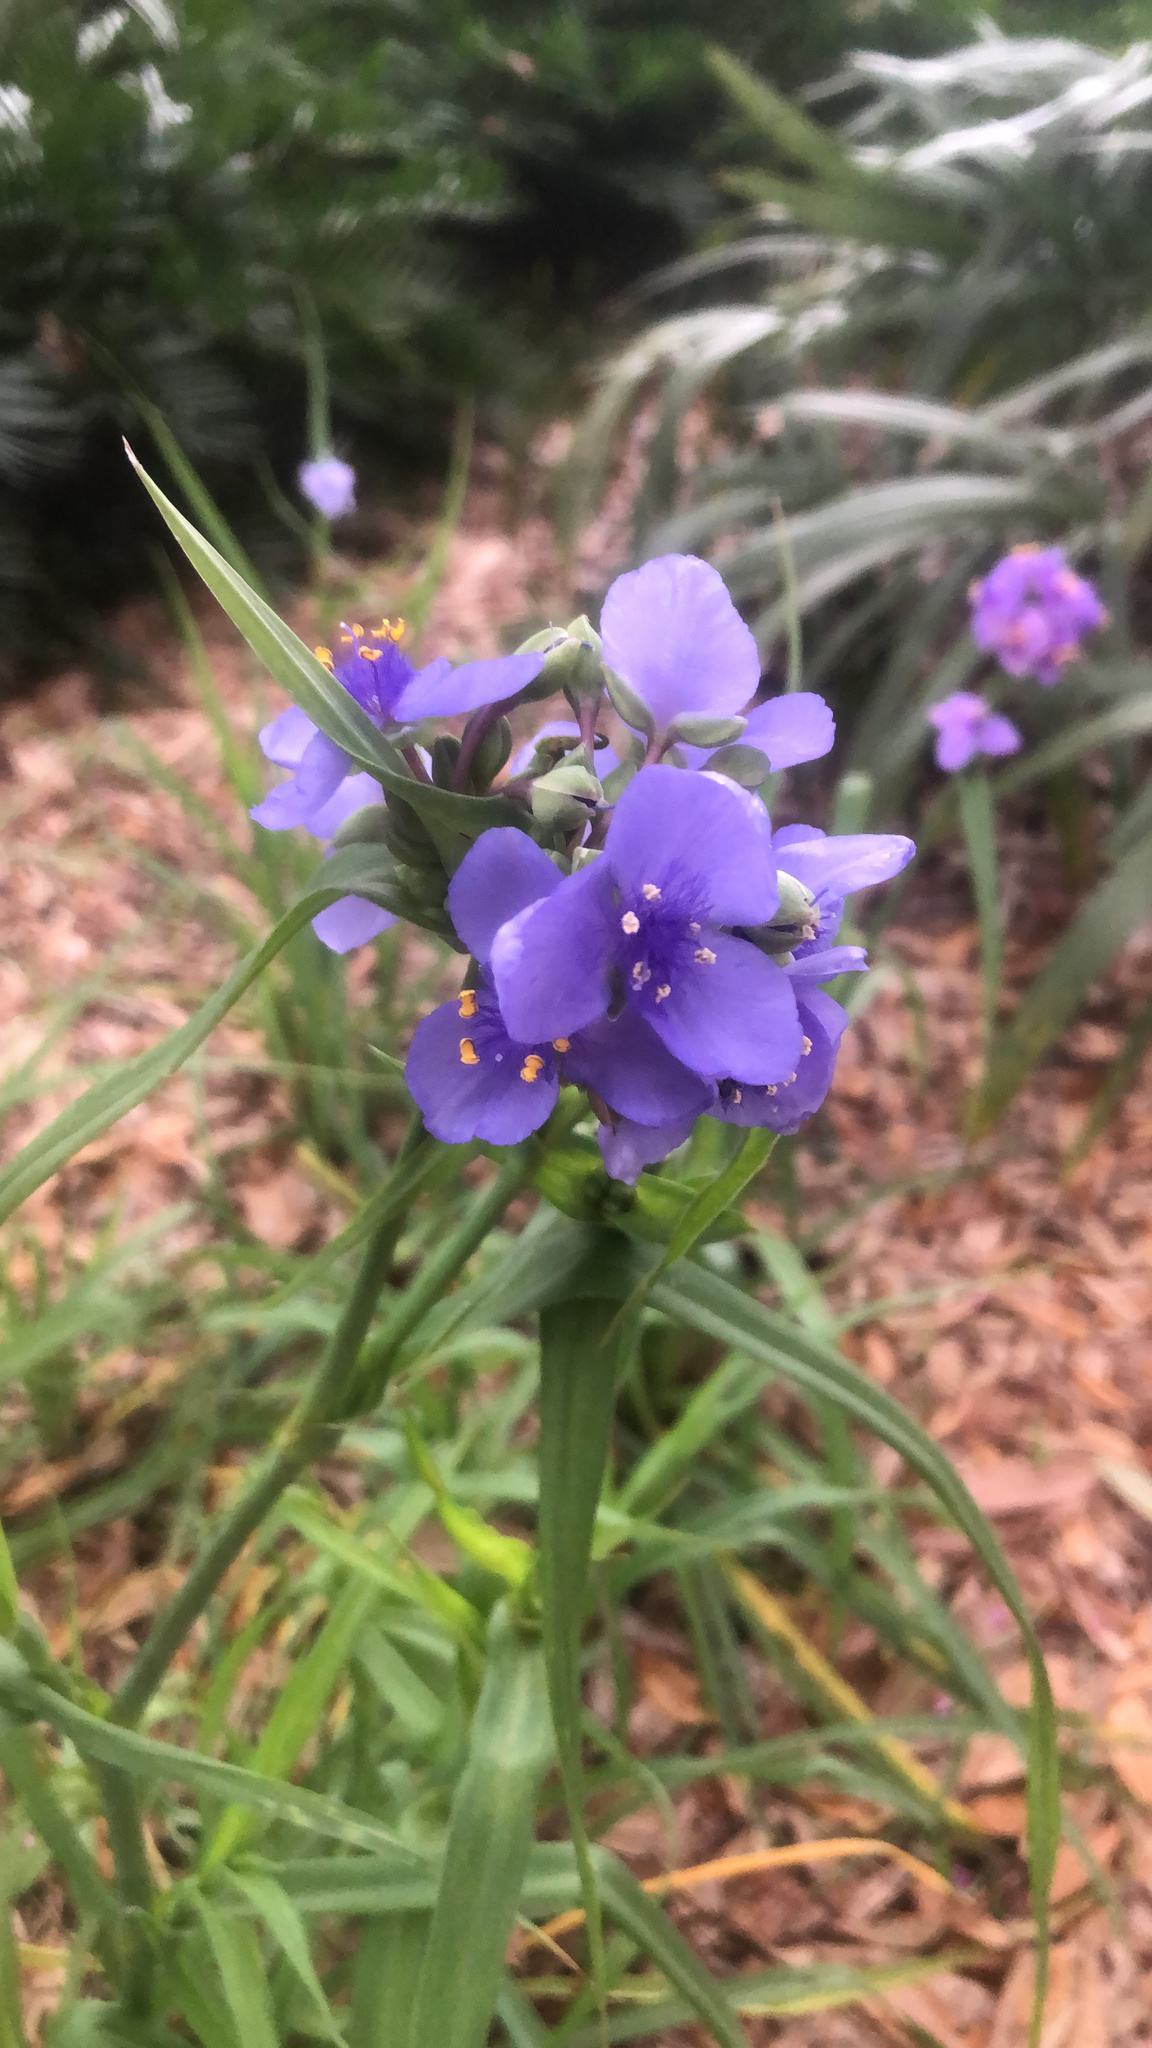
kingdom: Plantae
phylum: Tracheophyta
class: Liliopsida
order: Commelinales
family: Commelinaceae
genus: Tradescantia
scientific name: Tradescantia ohiensis
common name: Ohio spiderwort
